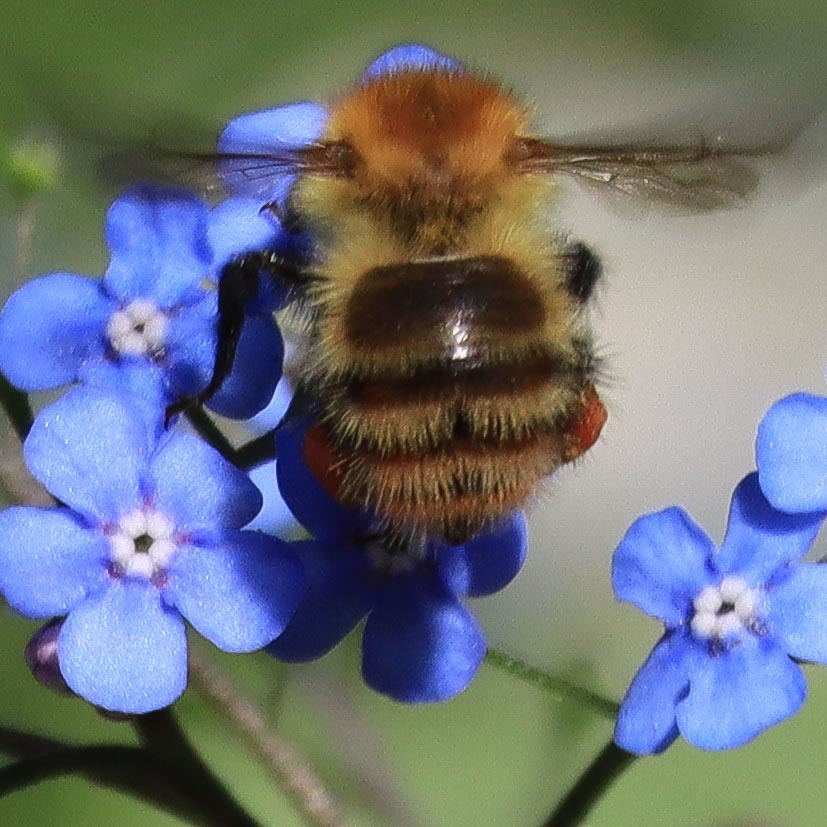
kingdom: Animalia
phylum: Arthropoda
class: Insecta
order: Hymenoptera
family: Apidae
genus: Bombus
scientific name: Bombus pascuorum
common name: Common carder bee
